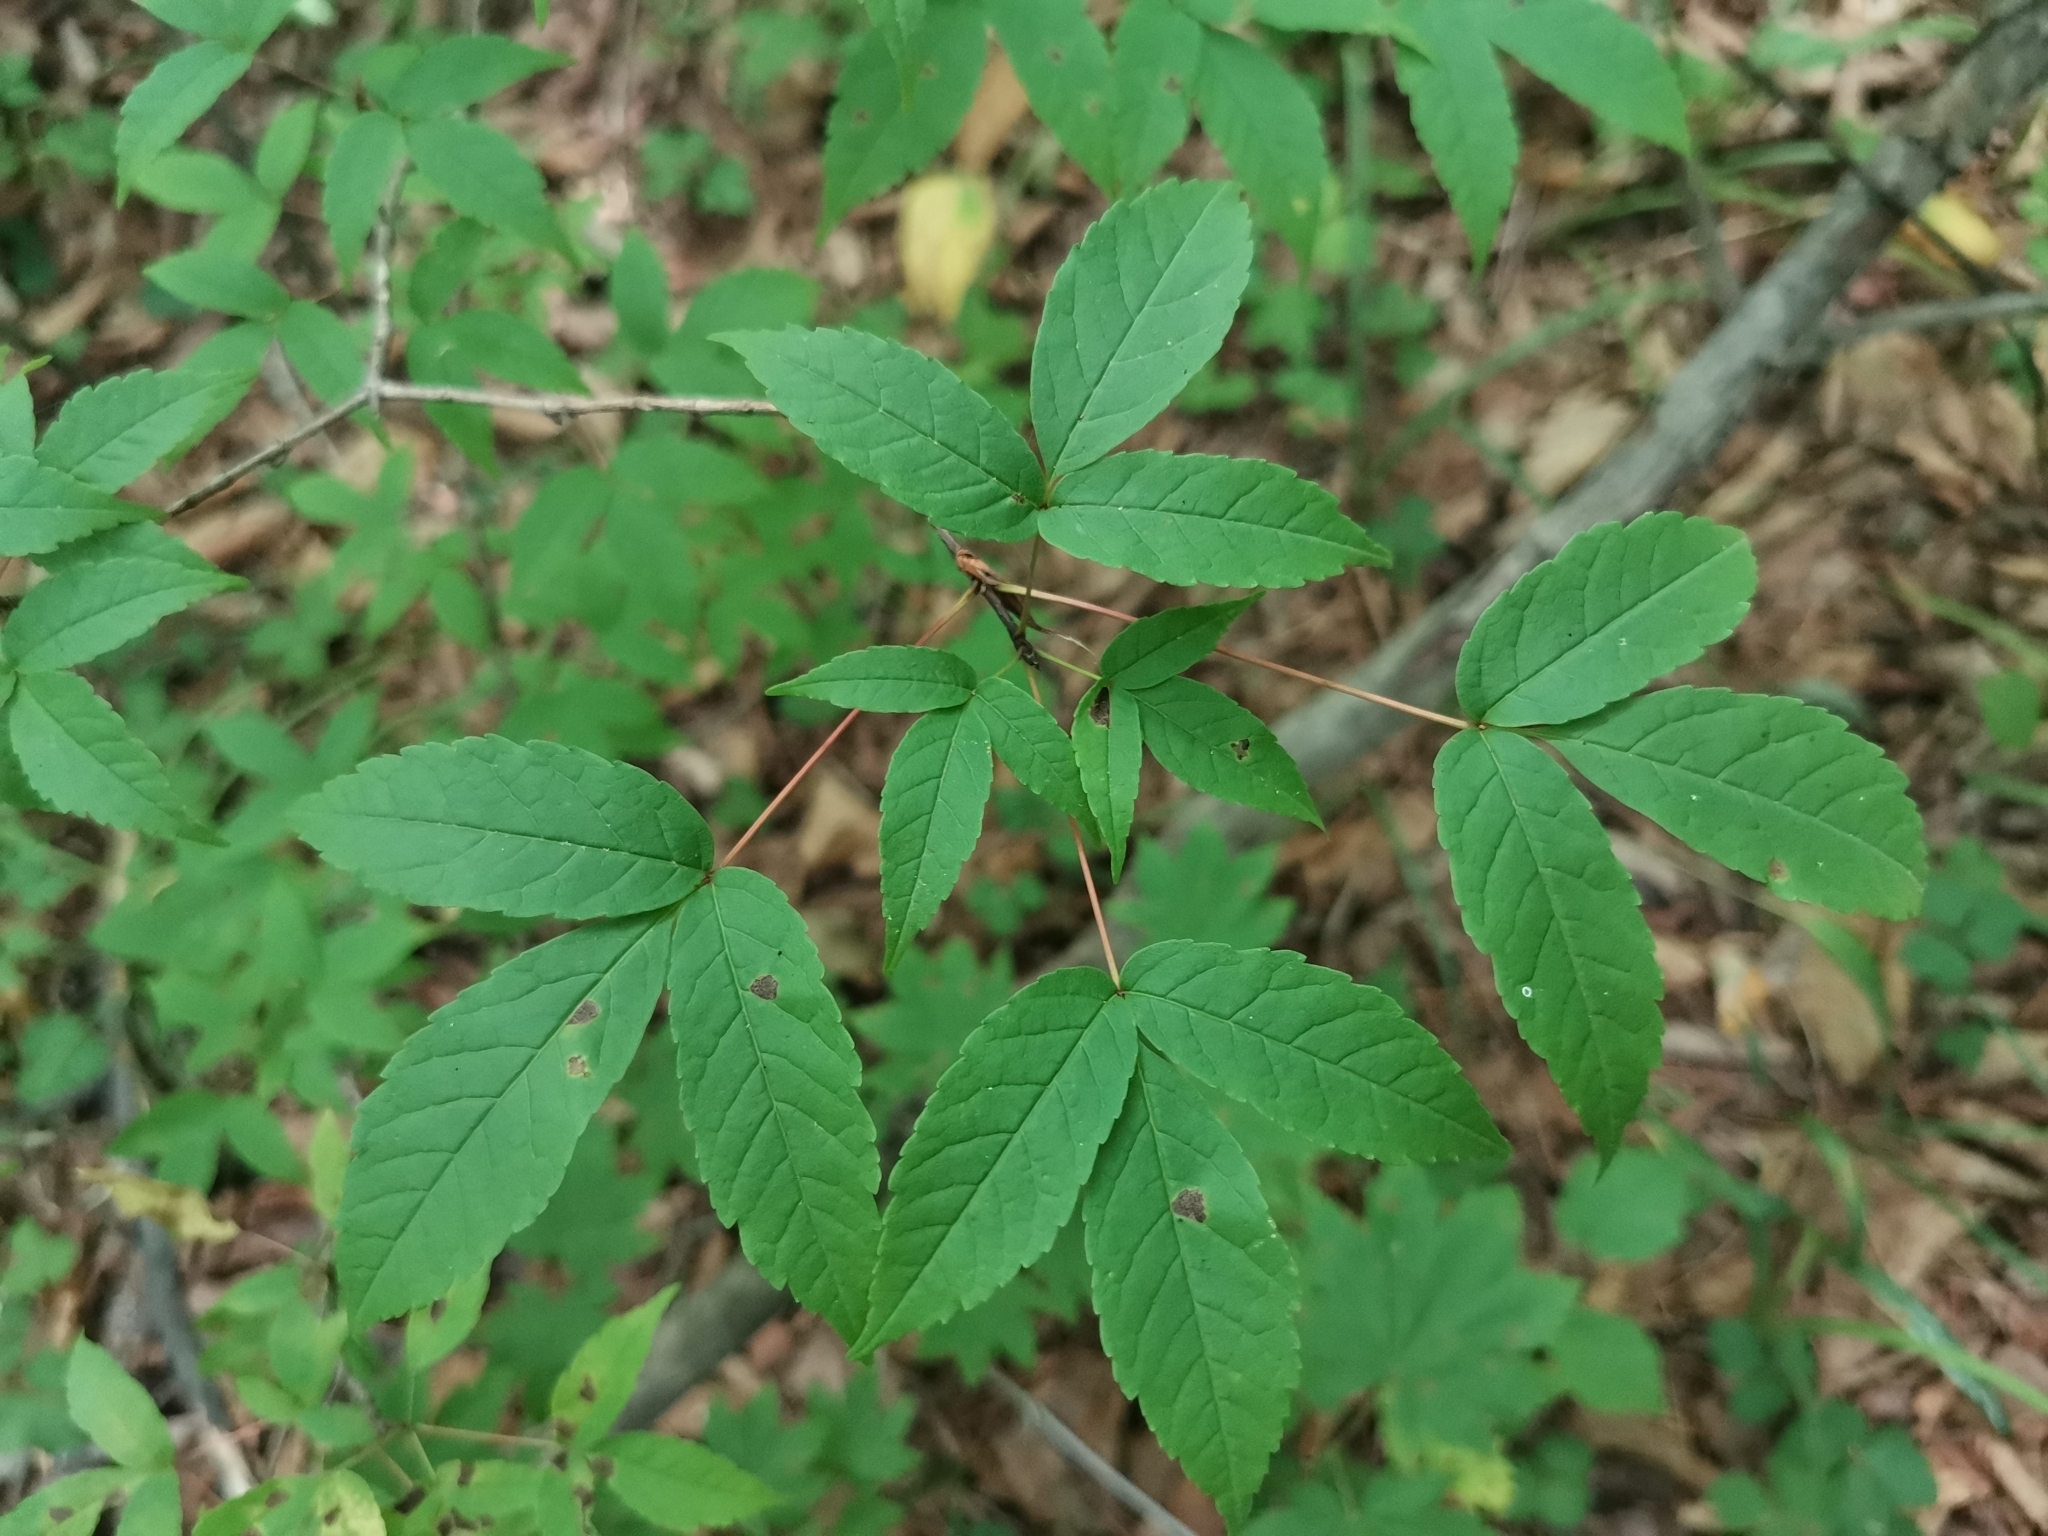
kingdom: Plantae
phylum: Tracheophyta
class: Magnoliopsida
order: Sapindales
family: Sapindaceae
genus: Acer
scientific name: Acer mandshuricum
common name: Manchurian maple
